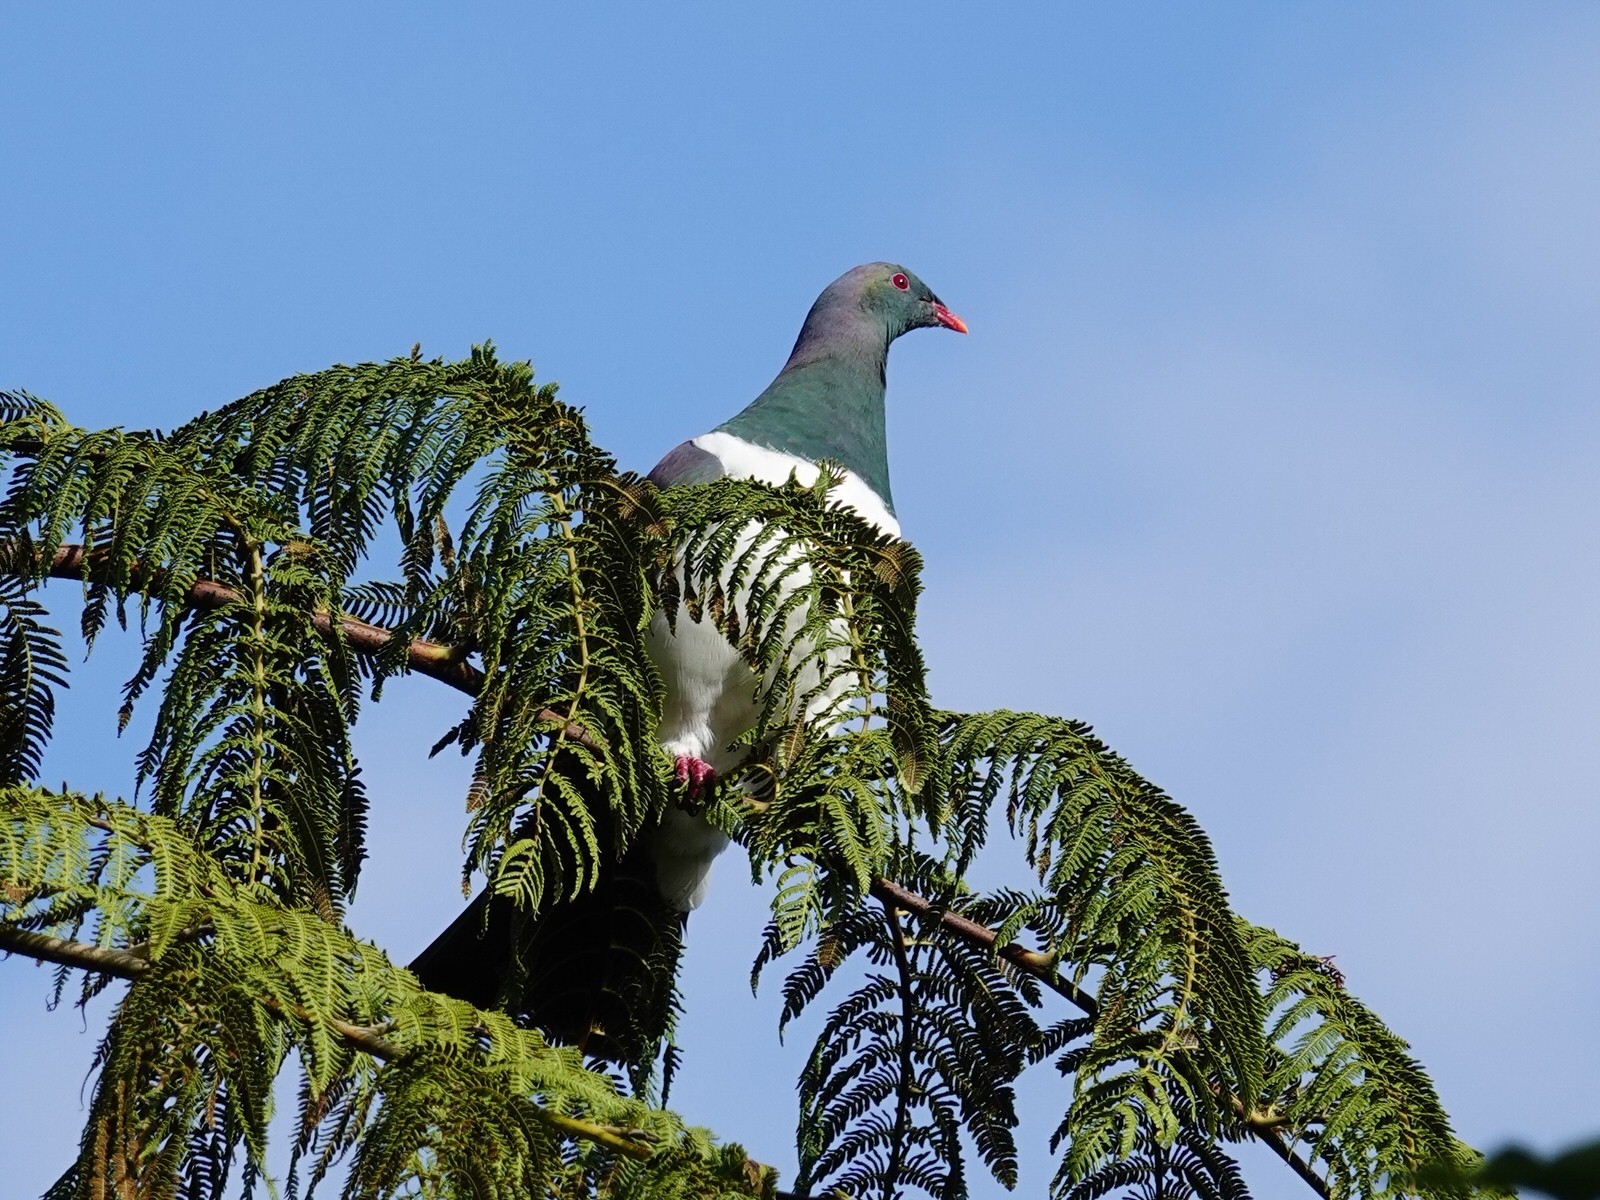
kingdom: Animalia
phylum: Chordata
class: Aves
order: Columbiformes
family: Columbidae
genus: Hemiphaga
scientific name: Hemiphaga novaeseelandiae
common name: New zealand pigeon
